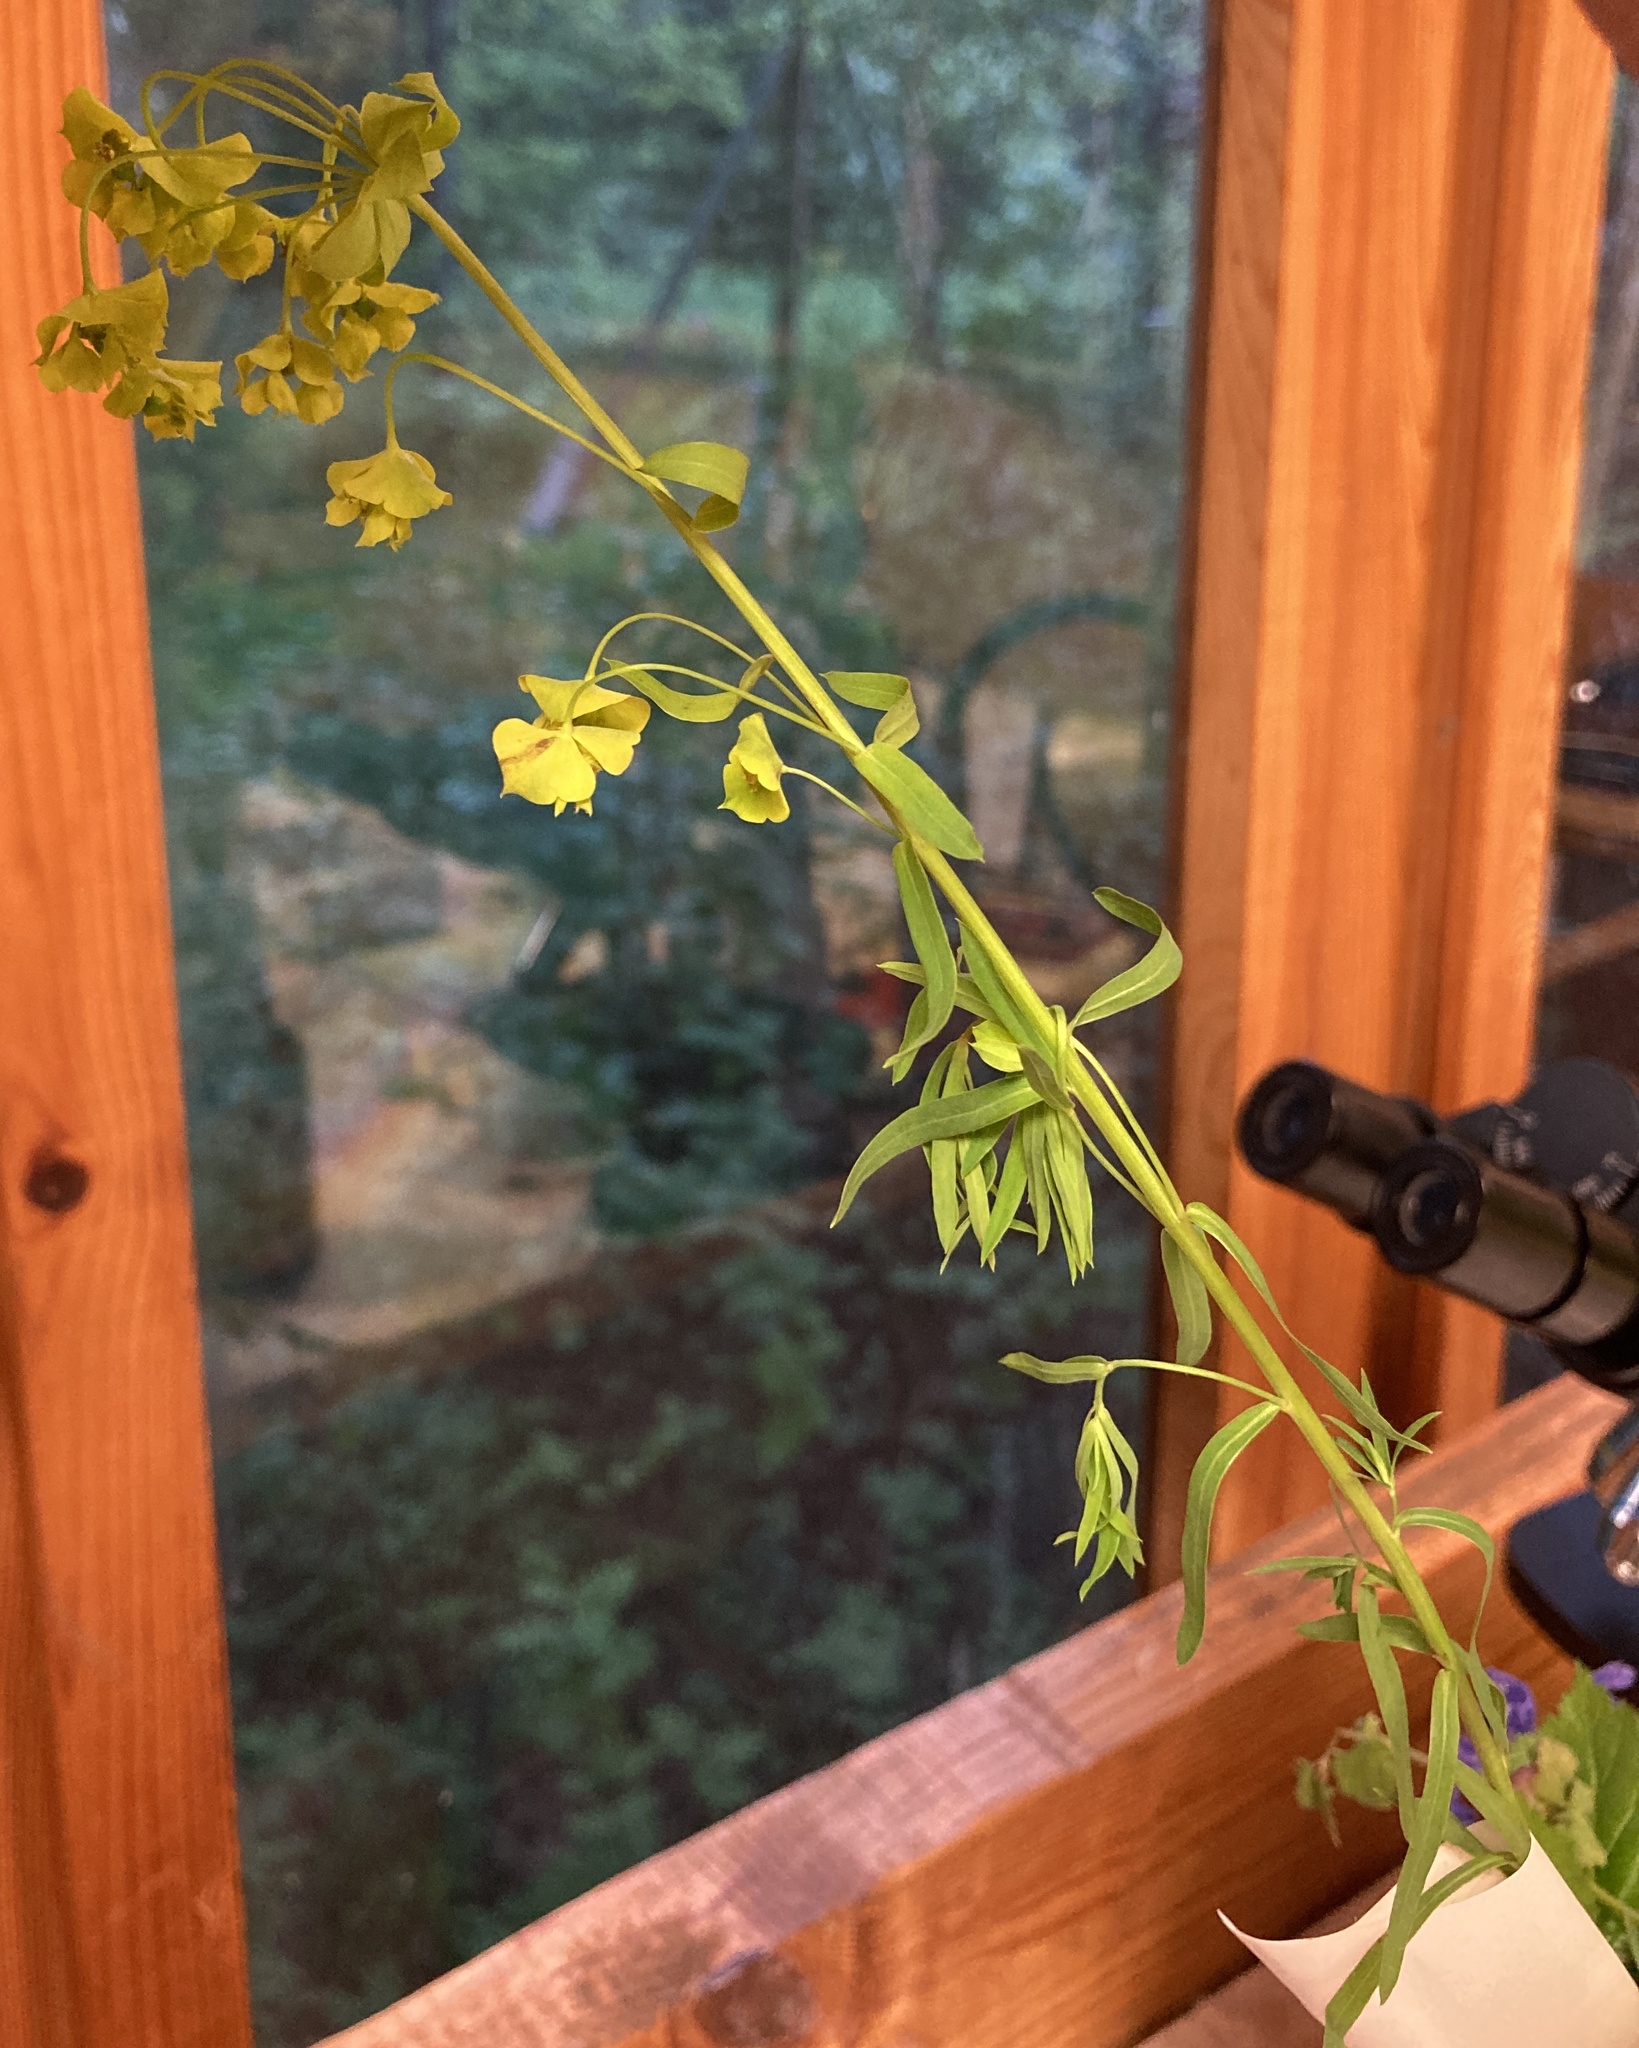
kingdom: Plantae
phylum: Tracheophyta
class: Magnoliopsida
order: Malpighiales
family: Euphorbiaceae
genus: Euphorbia
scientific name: Euphorbia virgata
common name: Leafy spurge
